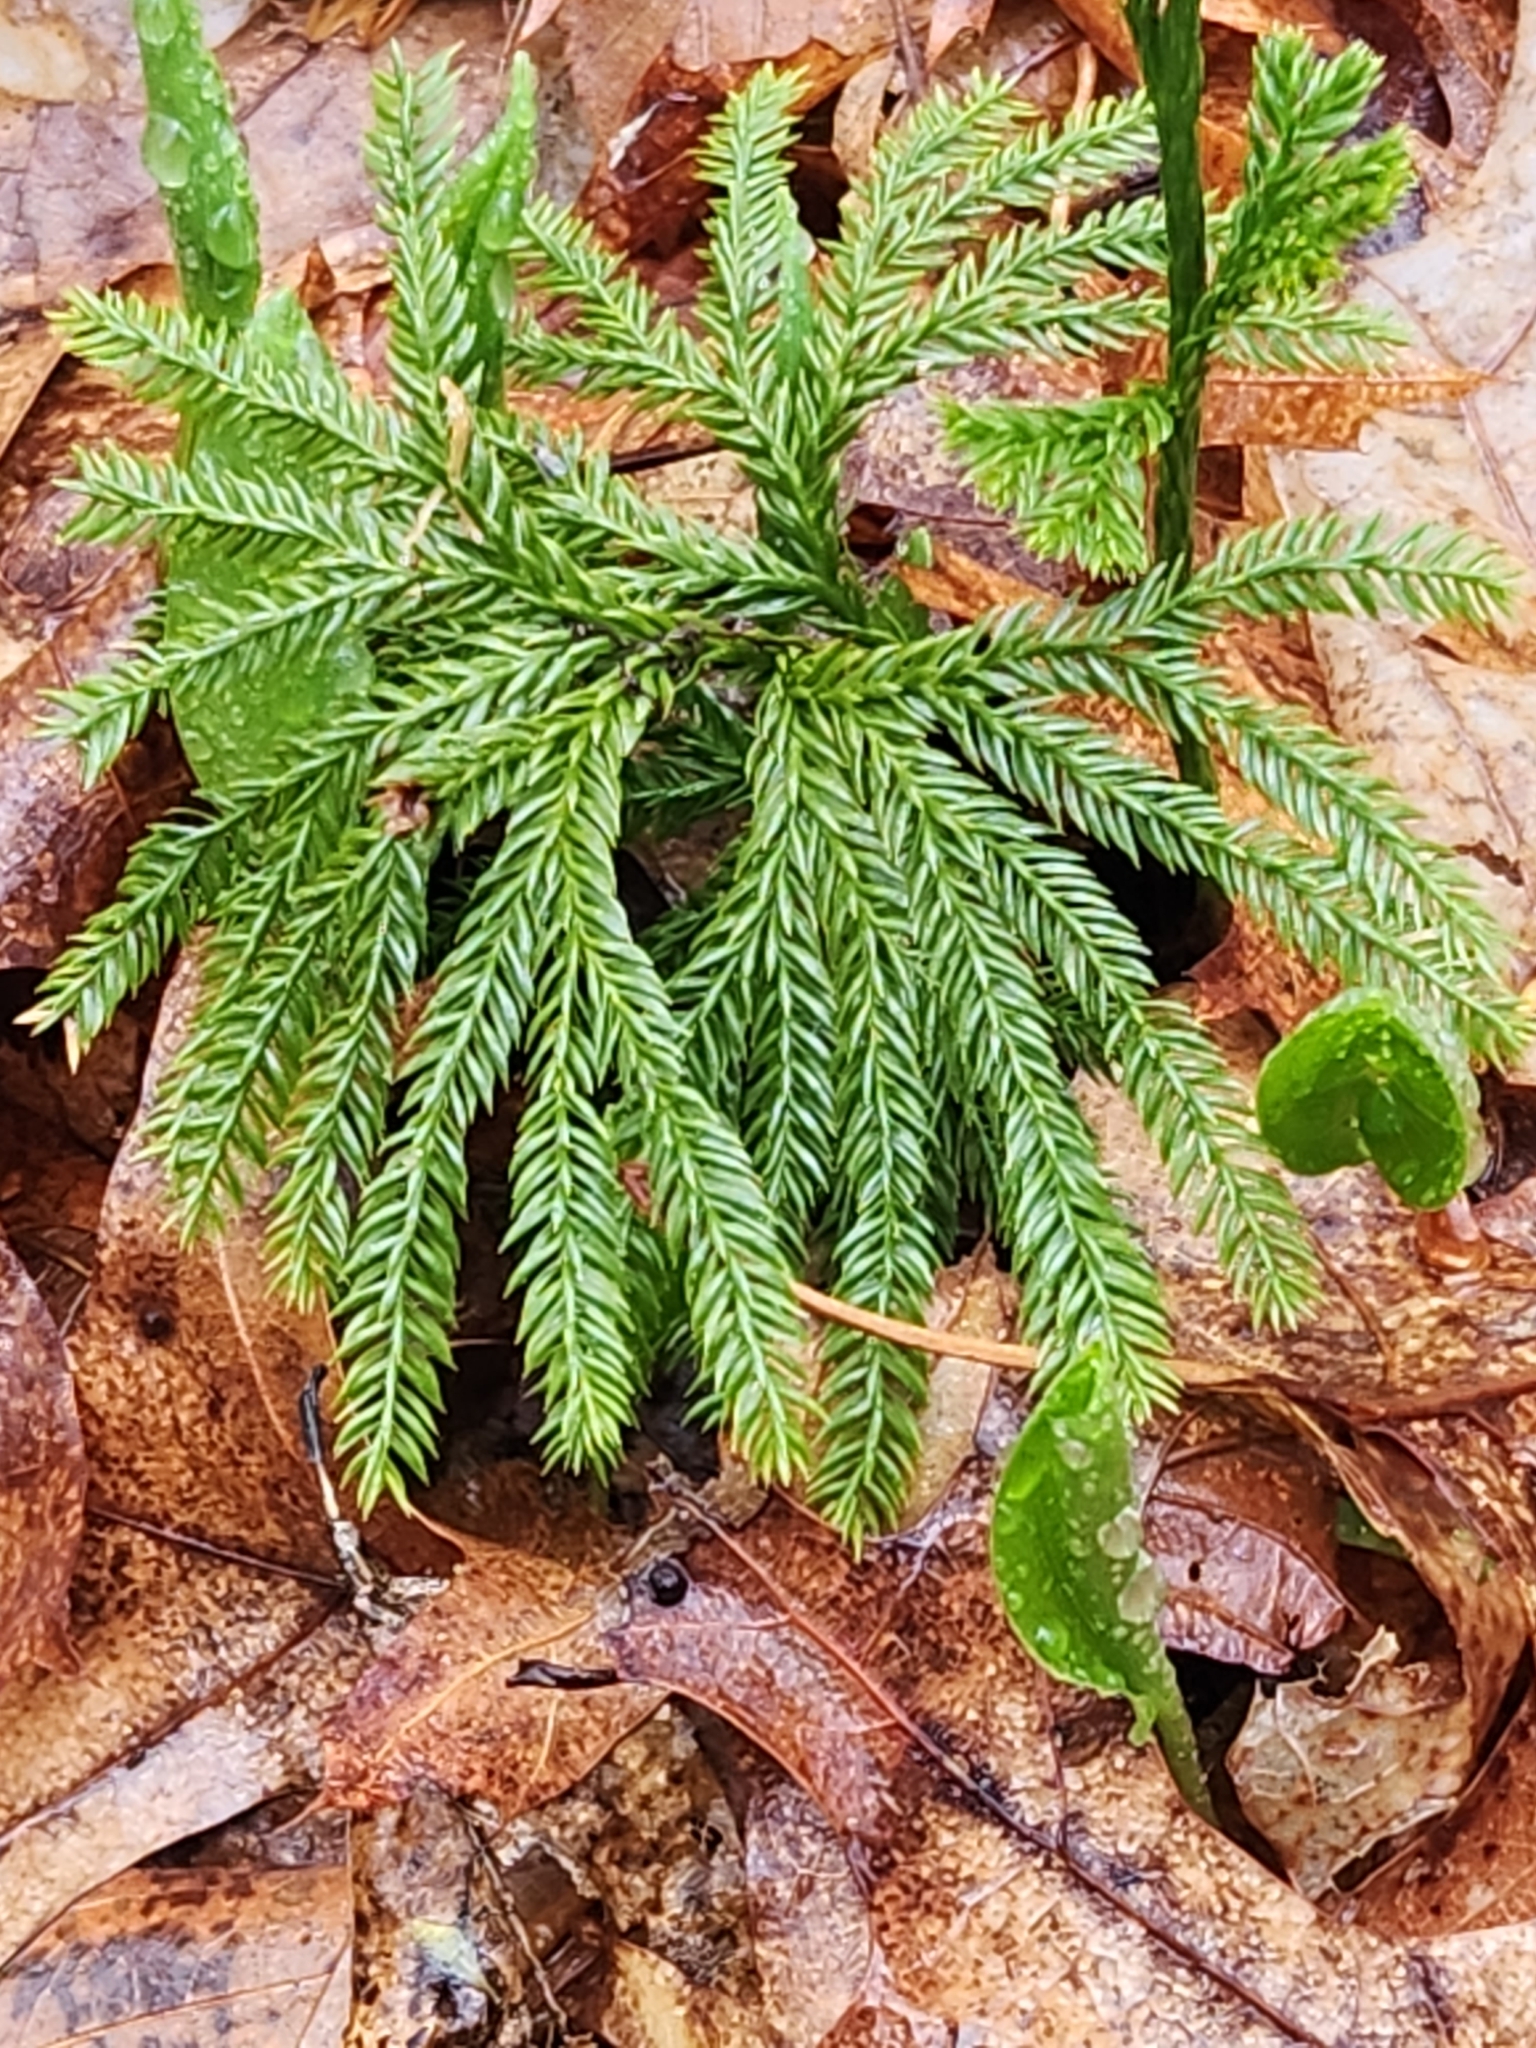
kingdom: Plantae
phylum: Tracheophyta
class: Lycopodiopsida
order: Lycopodiales
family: Lycopodiaceae
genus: Dendrolycopodium
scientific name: Dendrolycopodium obscurum
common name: Common ground-pine
